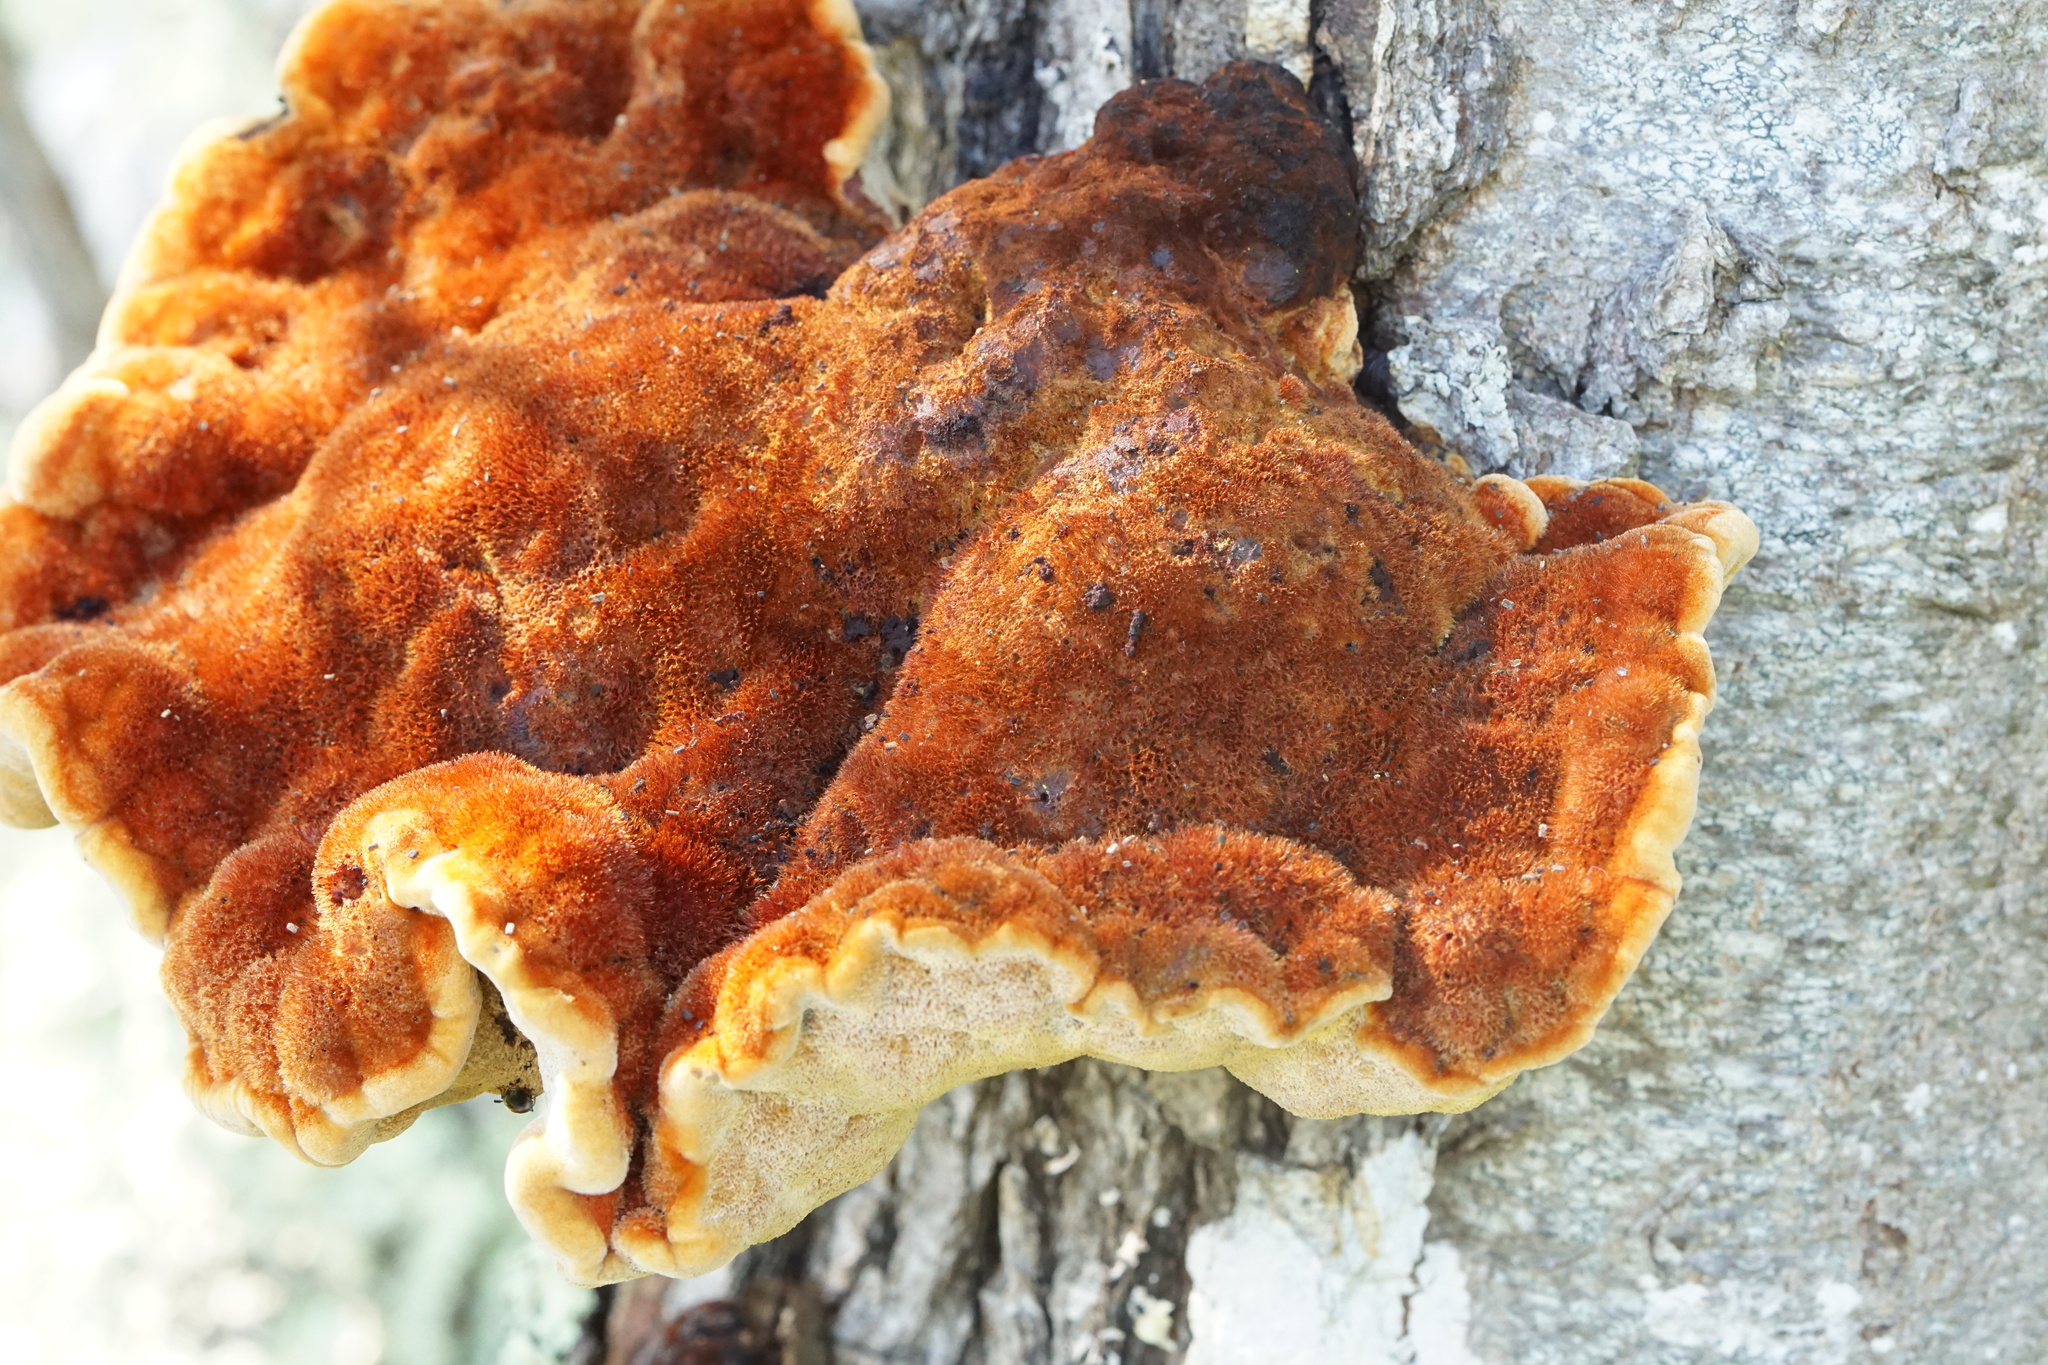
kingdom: Fungi
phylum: Basidiomycota
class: Agaricomycetes
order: Hymenochaetales
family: Hymenochaetaceae
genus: Inonotus
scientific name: Inonotus hispidus
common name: Shaggy bracket
